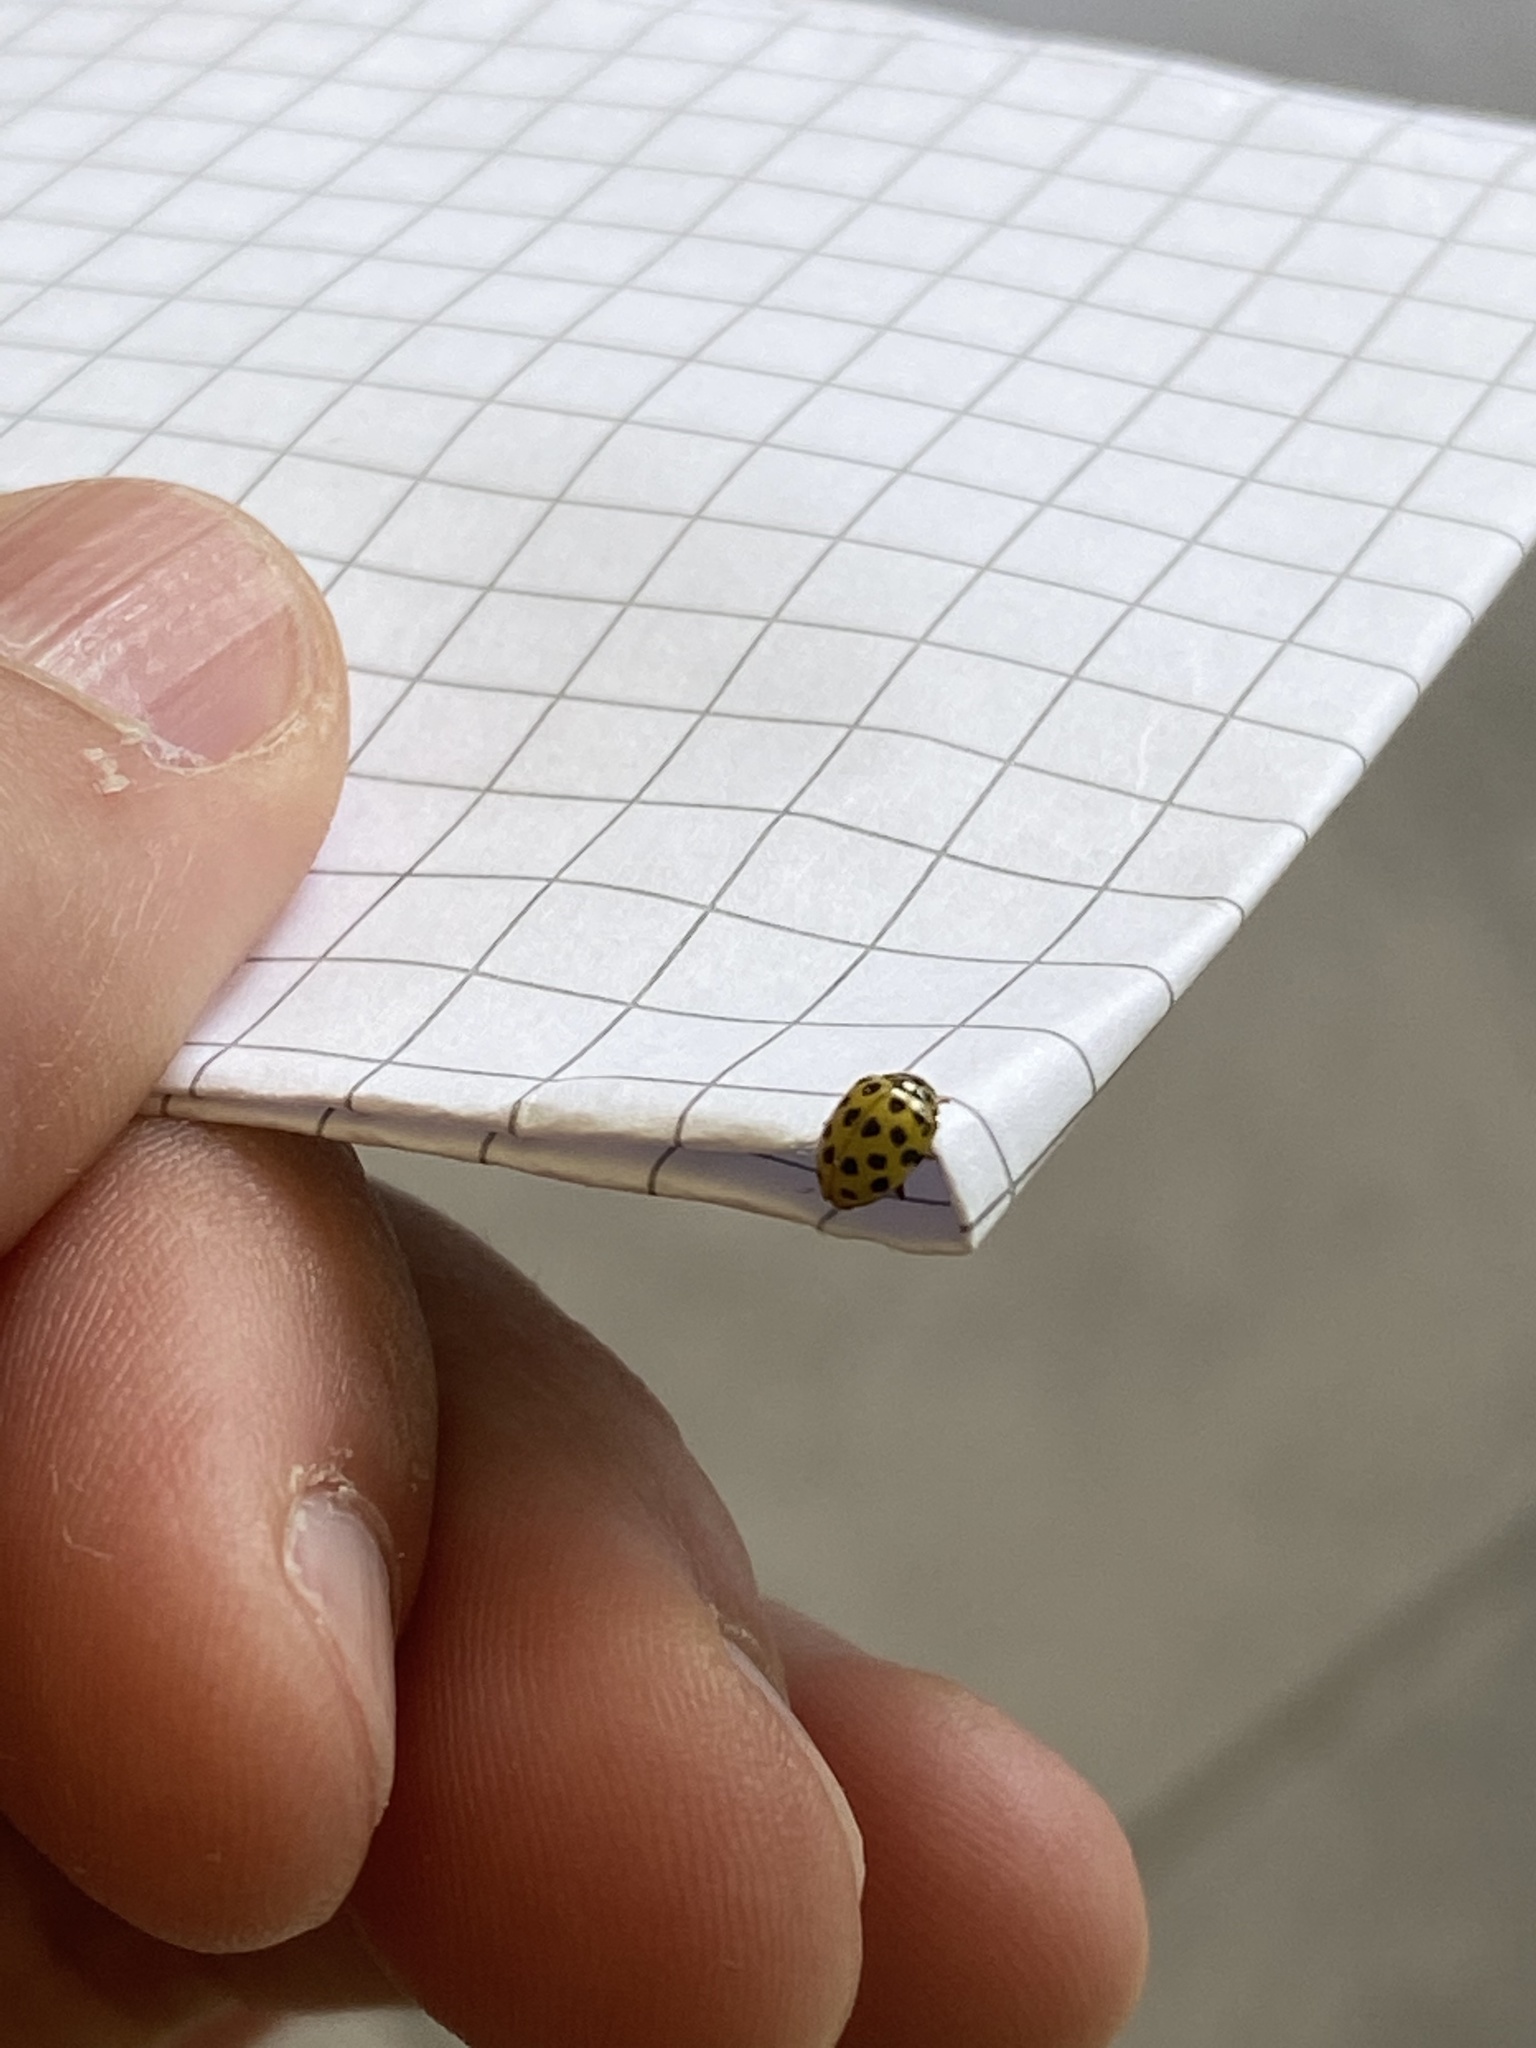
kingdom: Animalia
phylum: Arthropoda
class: Insecta
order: Coleoptera
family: Coccinellidae
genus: Psyllobora
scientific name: Psyllobora vigintiduopunctata
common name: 22-spot ladybird
